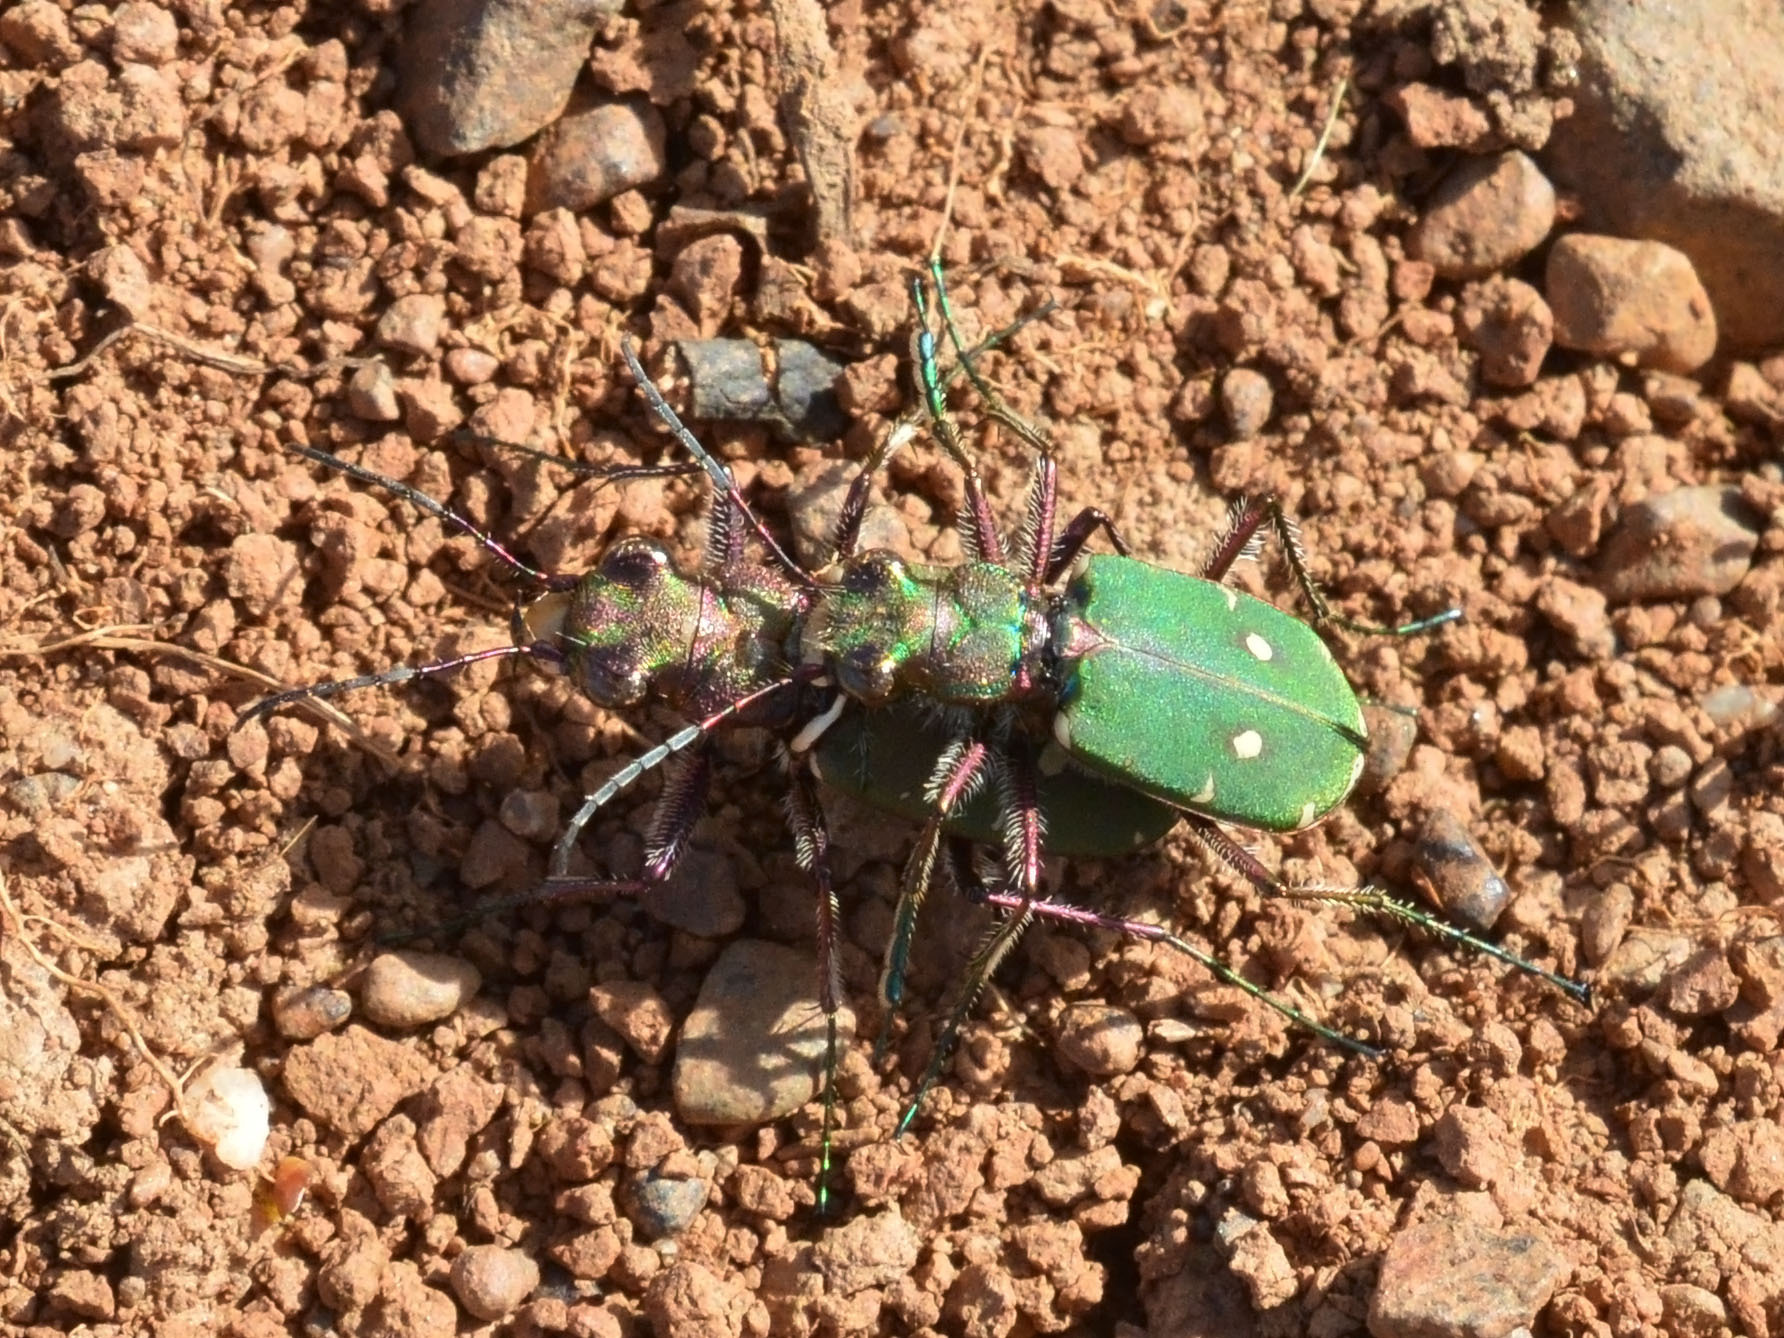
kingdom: Animalia
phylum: Arthropoda
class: Insecta
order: Coleoptera
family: Carabidae
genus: Cicindela
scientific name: Cicindela campestris
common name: Common tiger beetle
